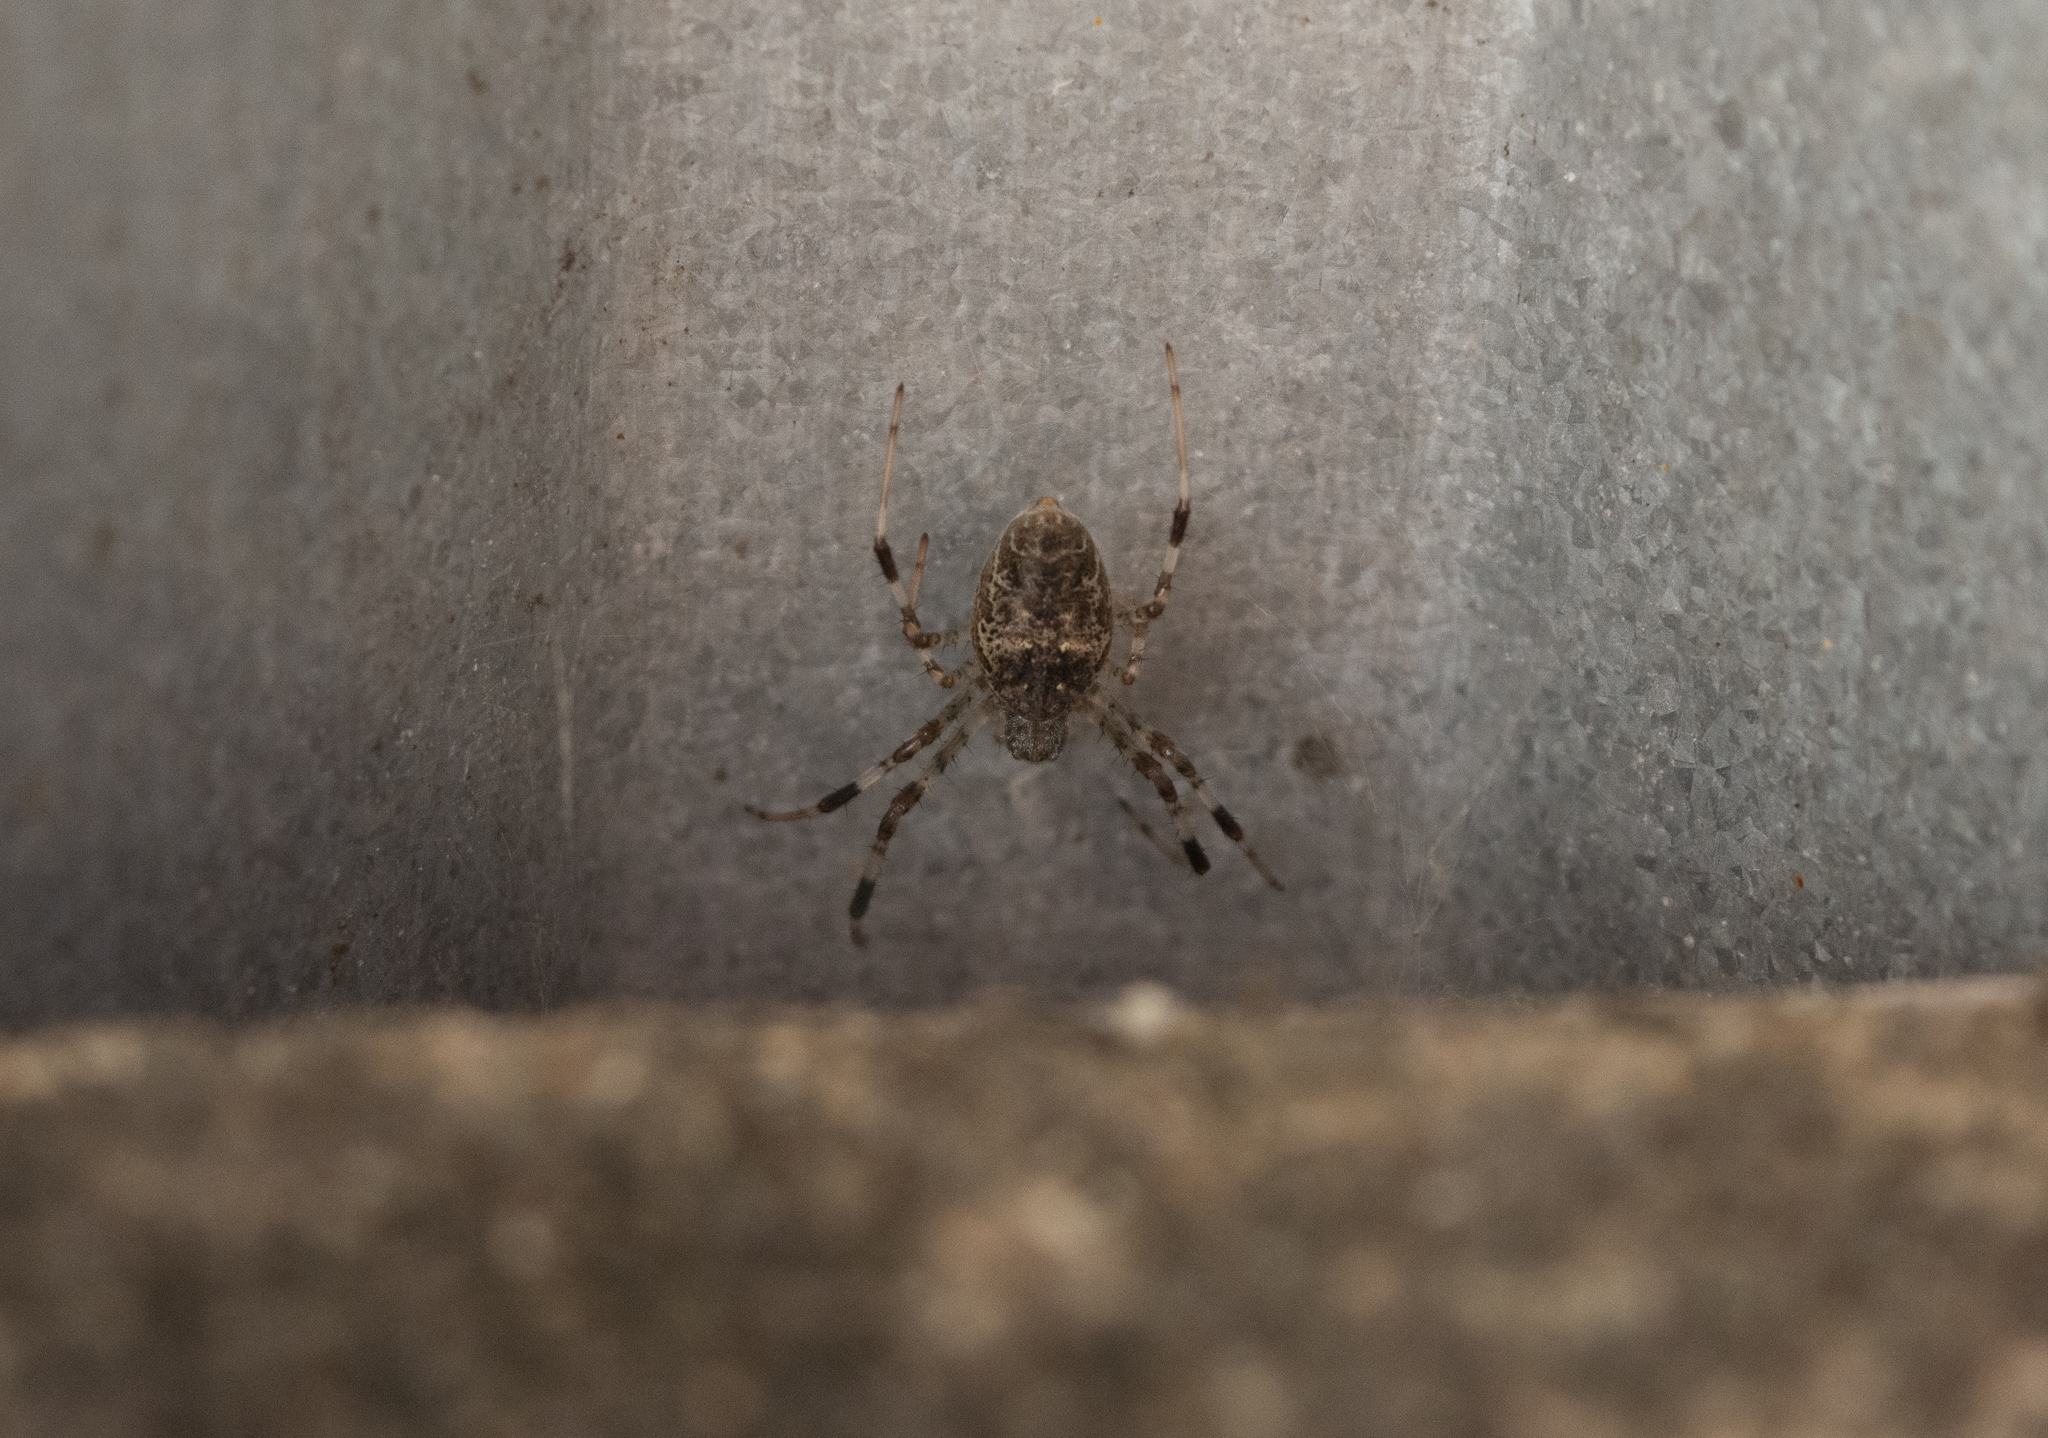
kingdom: Animalia
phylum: Arthropoda
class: Arachnida
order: Araneae
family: Araneidae
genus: Nephilingis
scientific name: Nephilingis cruentata
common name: African hermit spider
